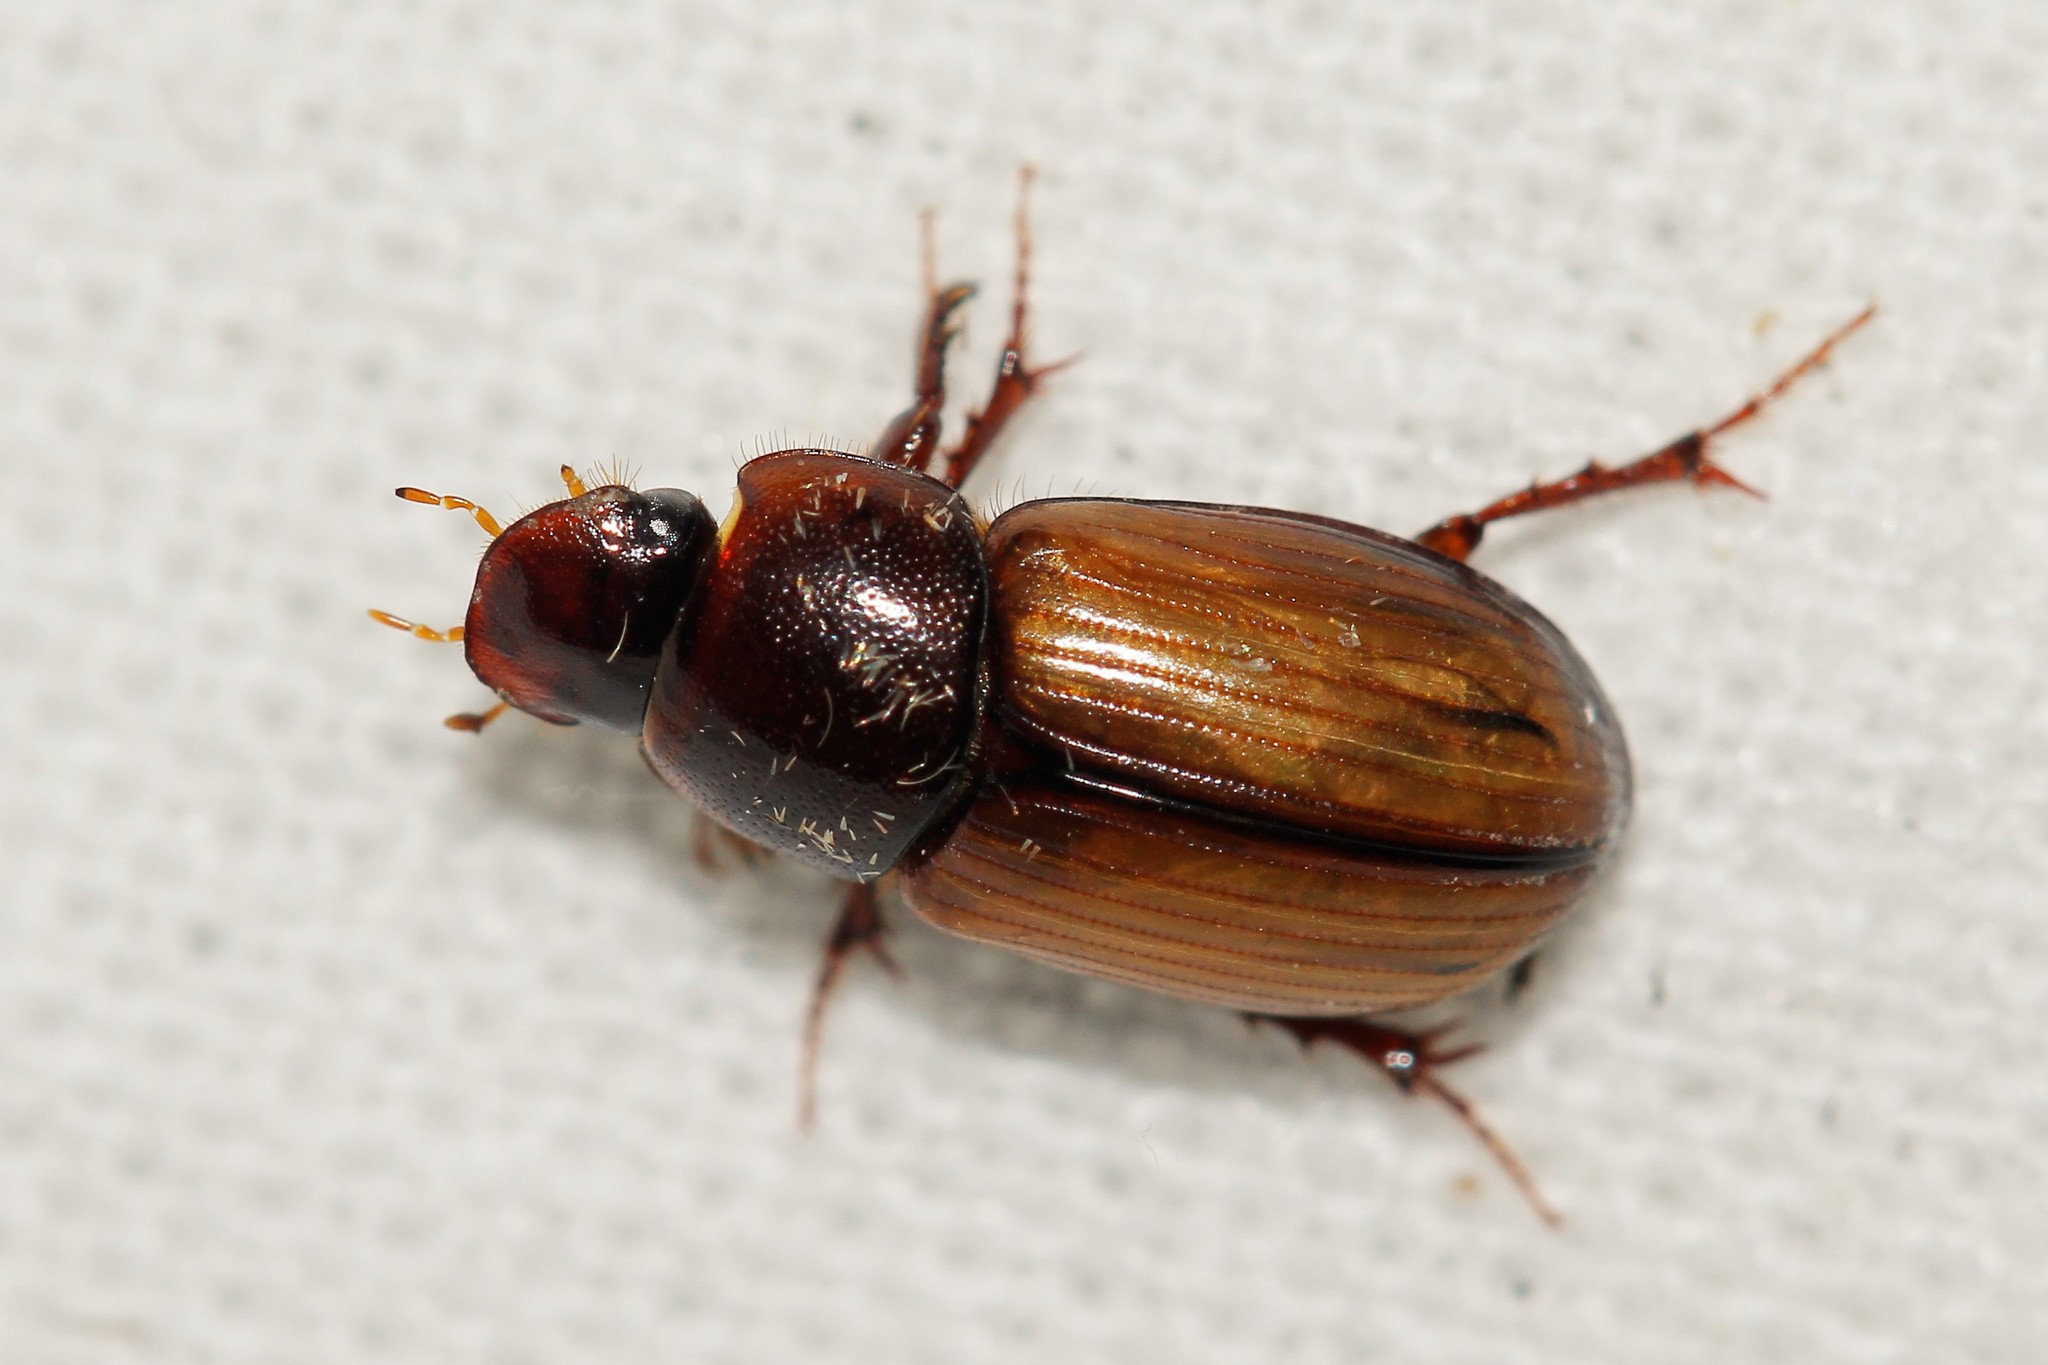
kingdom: Animalia
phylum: Arthropoda
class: Insecta
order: Coleoptera
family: Scarabaeidae
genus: Bodilus
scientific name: Bodilus lugens
